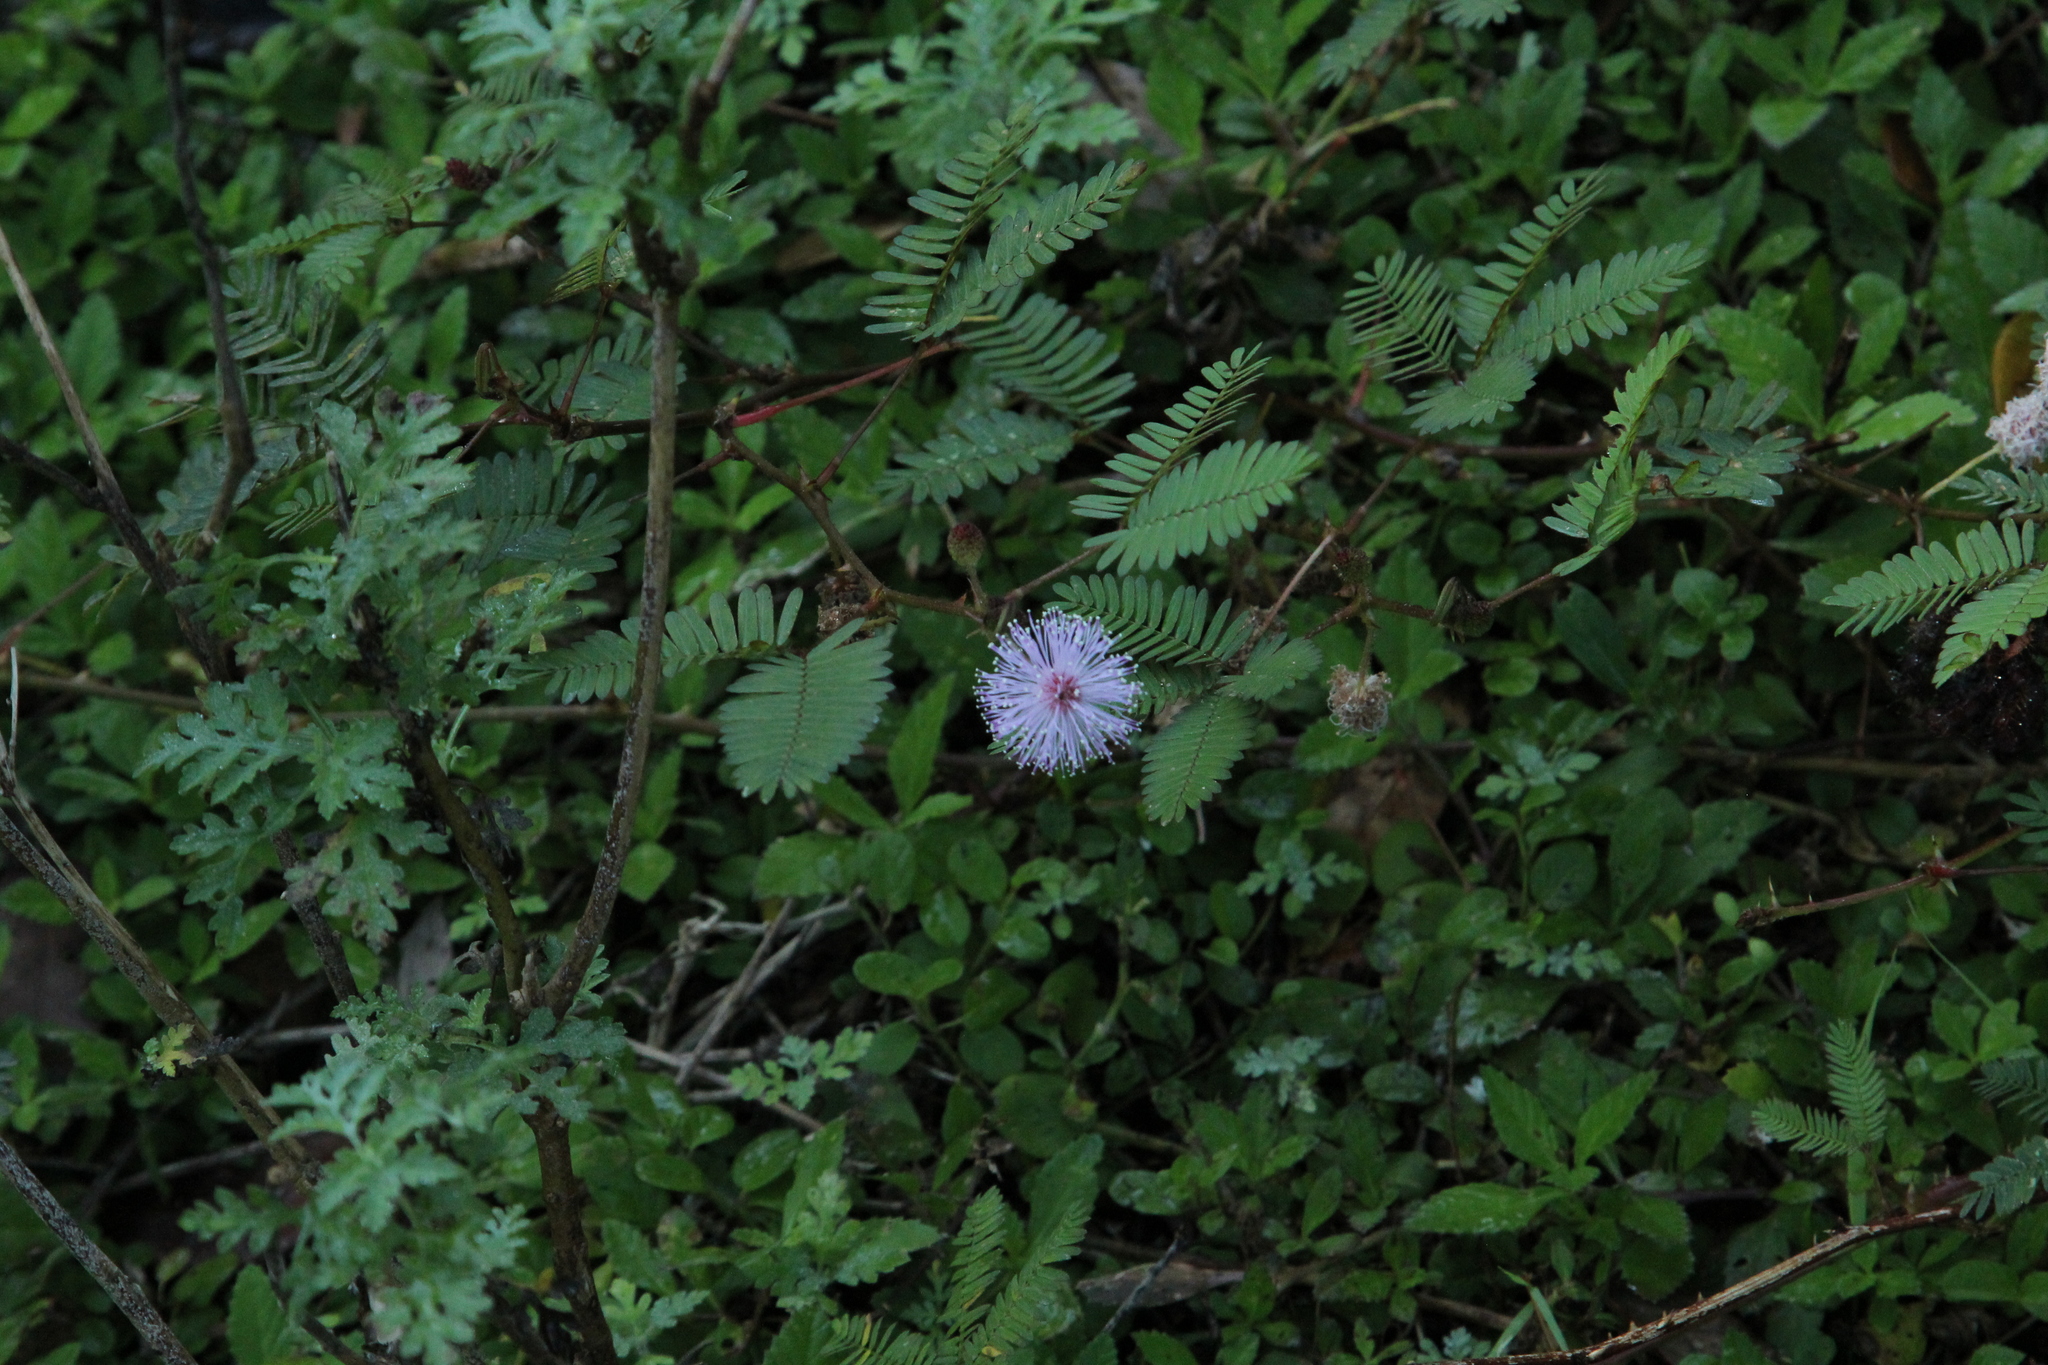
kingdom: Plantae
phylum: Tracheophyta
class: Magnoliopsida
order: Fabales
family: Fabaceae
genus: Mimosa
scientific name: Mimosa pudica
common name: Sensitive plant
